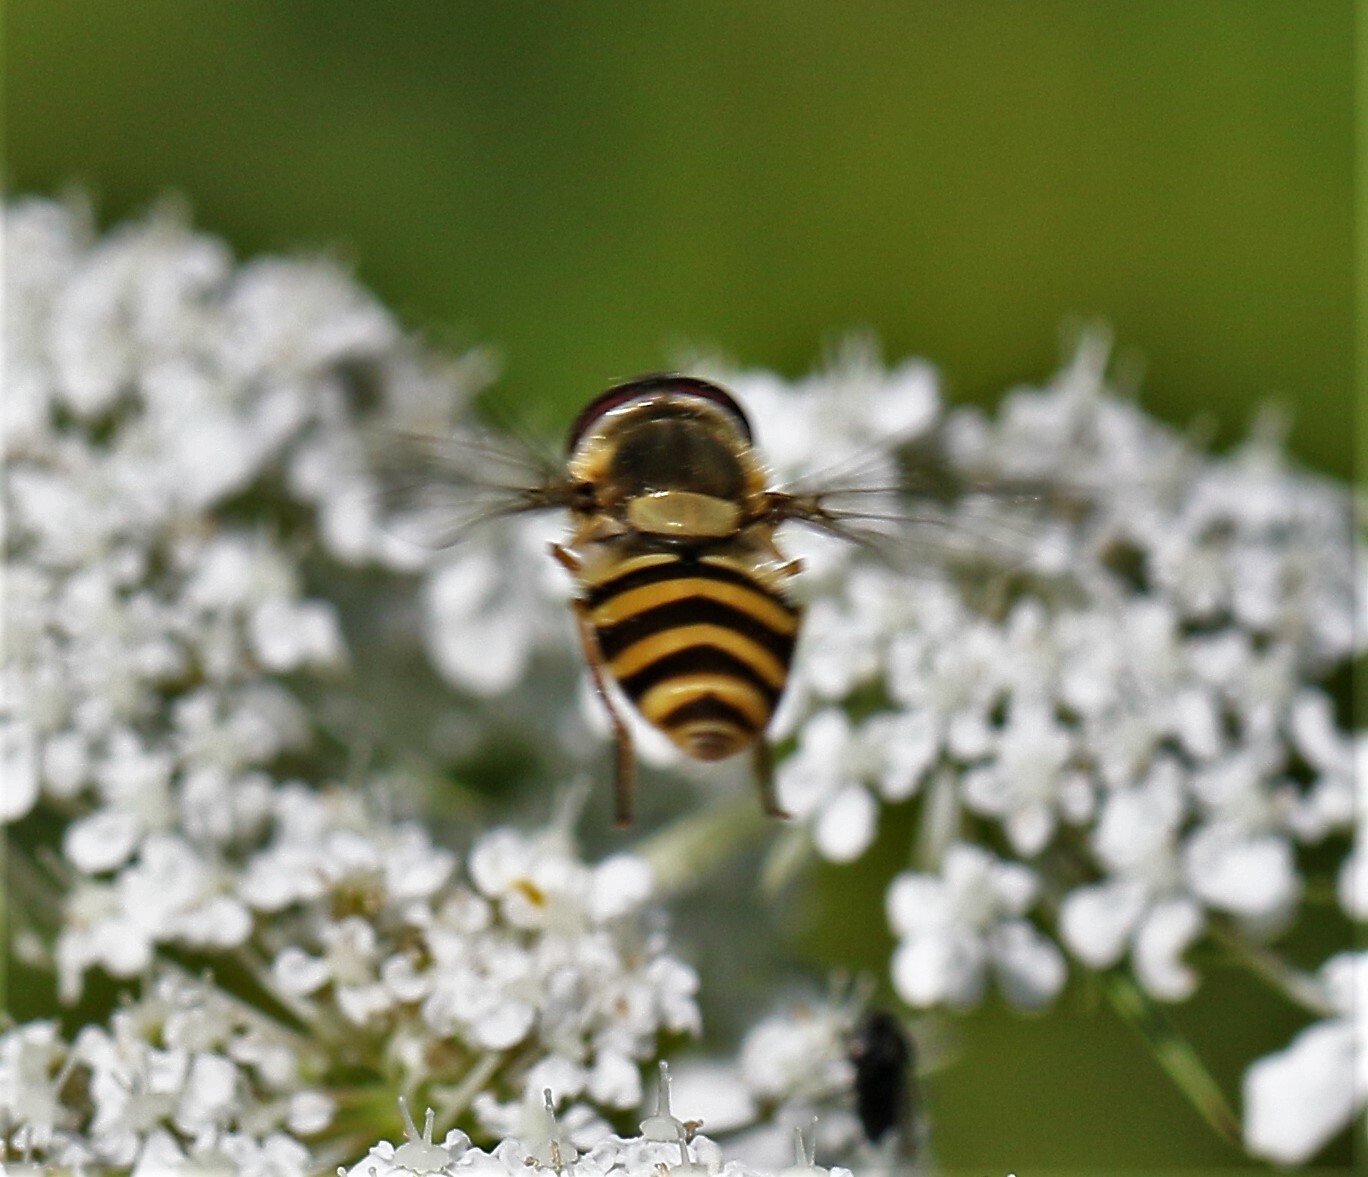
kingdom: Animalia
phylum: Arthropoda
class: Insecta
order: Diptera
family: Syrphidae
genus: Syrphus
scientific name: Syrphus rectus
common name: Yellow-legged flower fly
